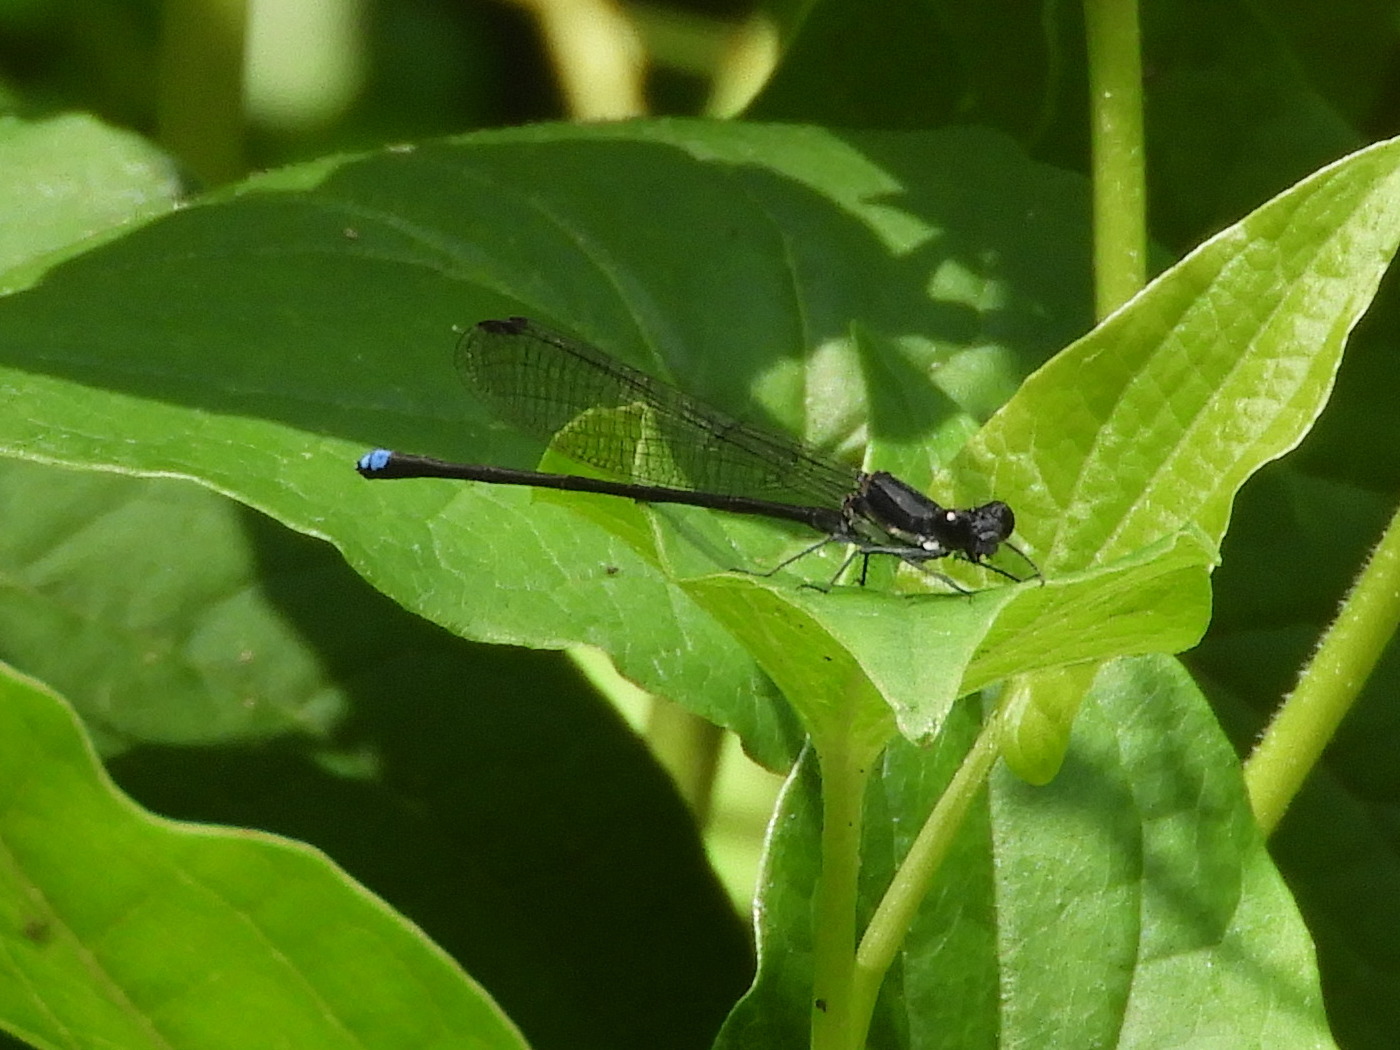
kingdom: Animalia
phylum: Arthropoda
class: Insecta
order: Odonata
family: Coenagrionidae
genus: Argia
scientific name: Argia tibialis
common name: Blue-tipped dancer
